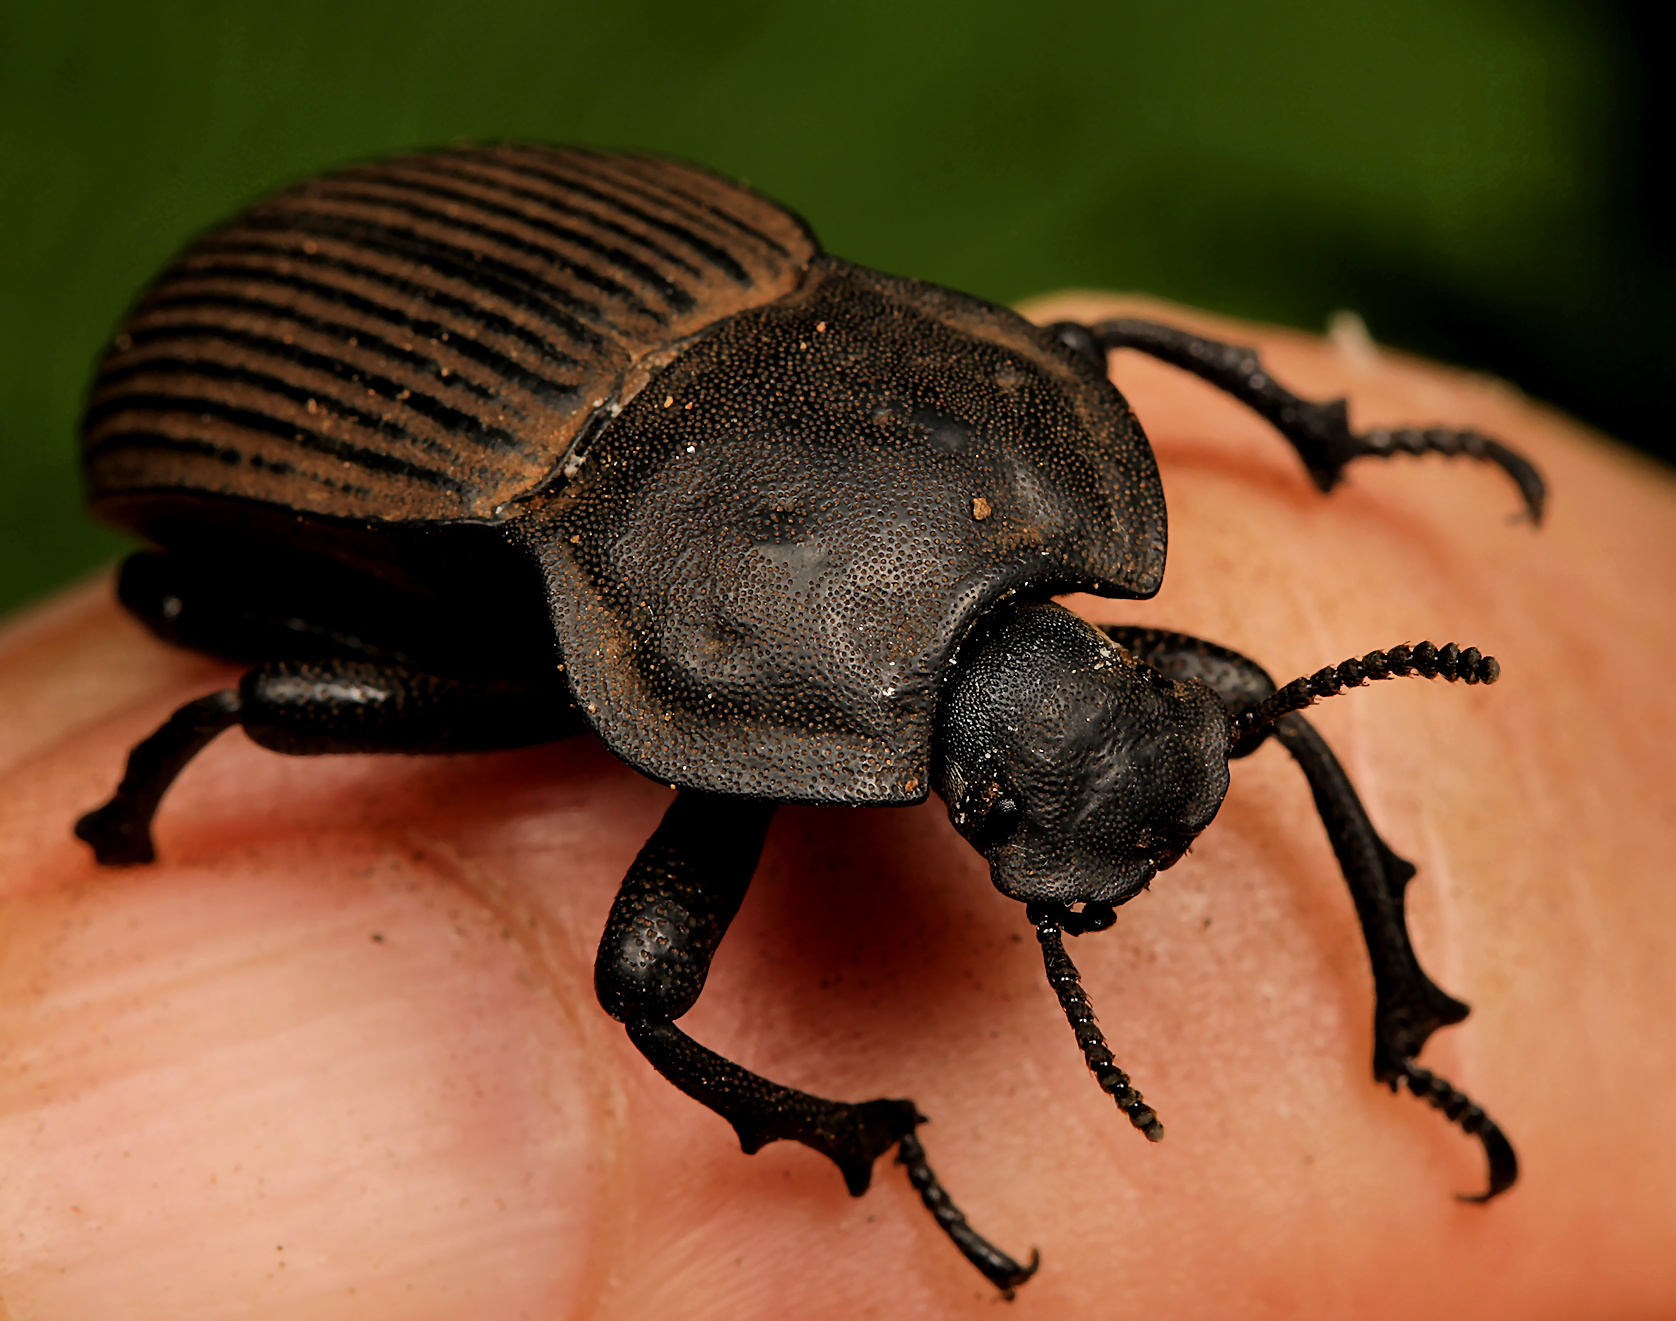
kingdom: Animalia
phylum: Arthropoda
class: Insecta
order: Coleoptera
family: Tenebrionidae
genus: Anomalipus
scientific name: Anomalipus
